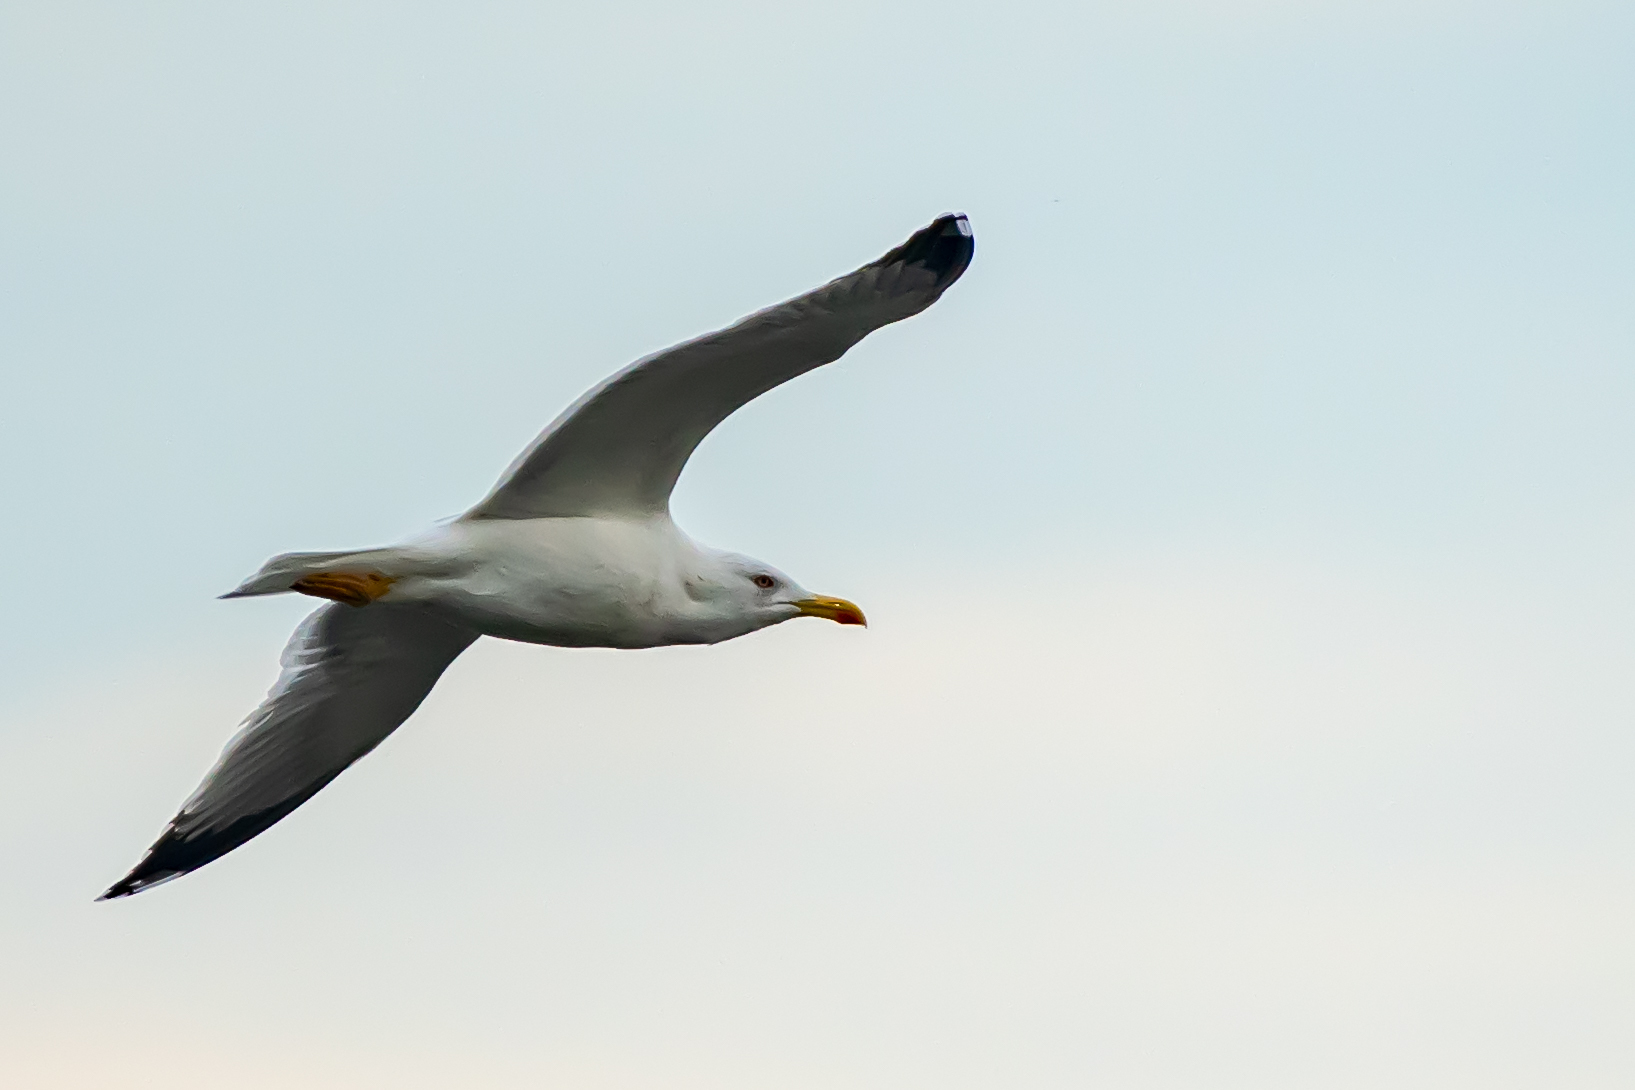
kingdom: Animalia
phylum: Chordata
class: Aves
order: Charadriiformes
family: Laridae
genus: Larus
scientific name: Larus michahellis
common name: Yellow-legged gull
